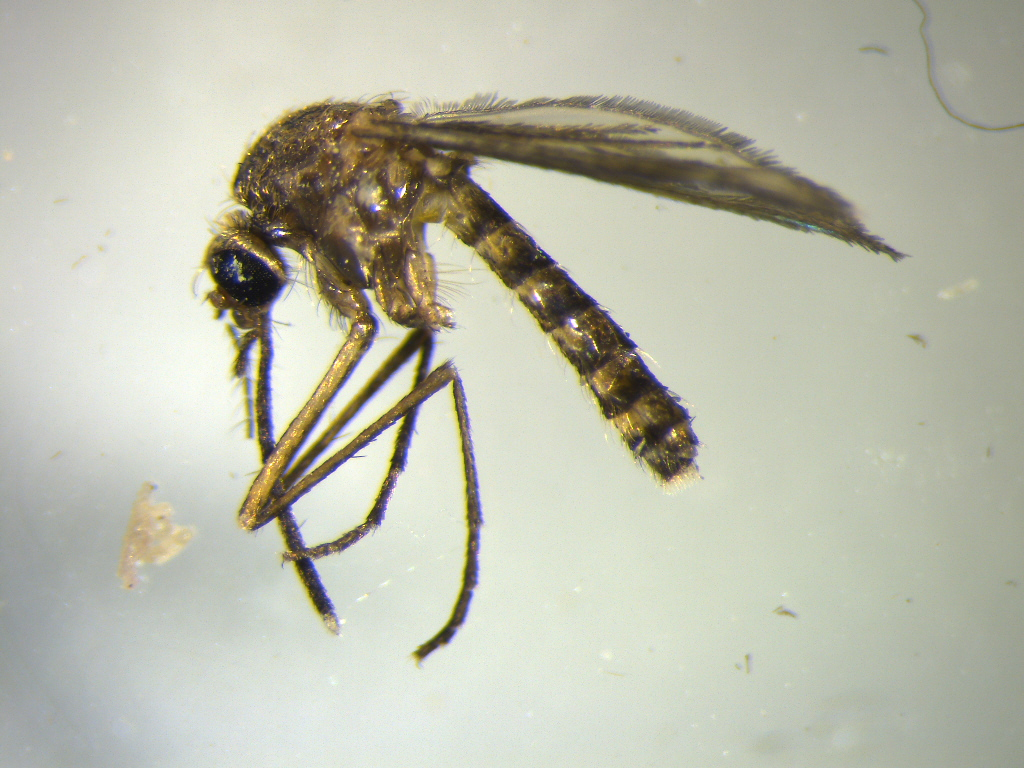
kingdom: Animalia
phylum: Arthropoda
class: Insecta
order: Diptera
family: Culicidae
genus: Coquillettidia
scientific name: Coquillettidia iracunda
